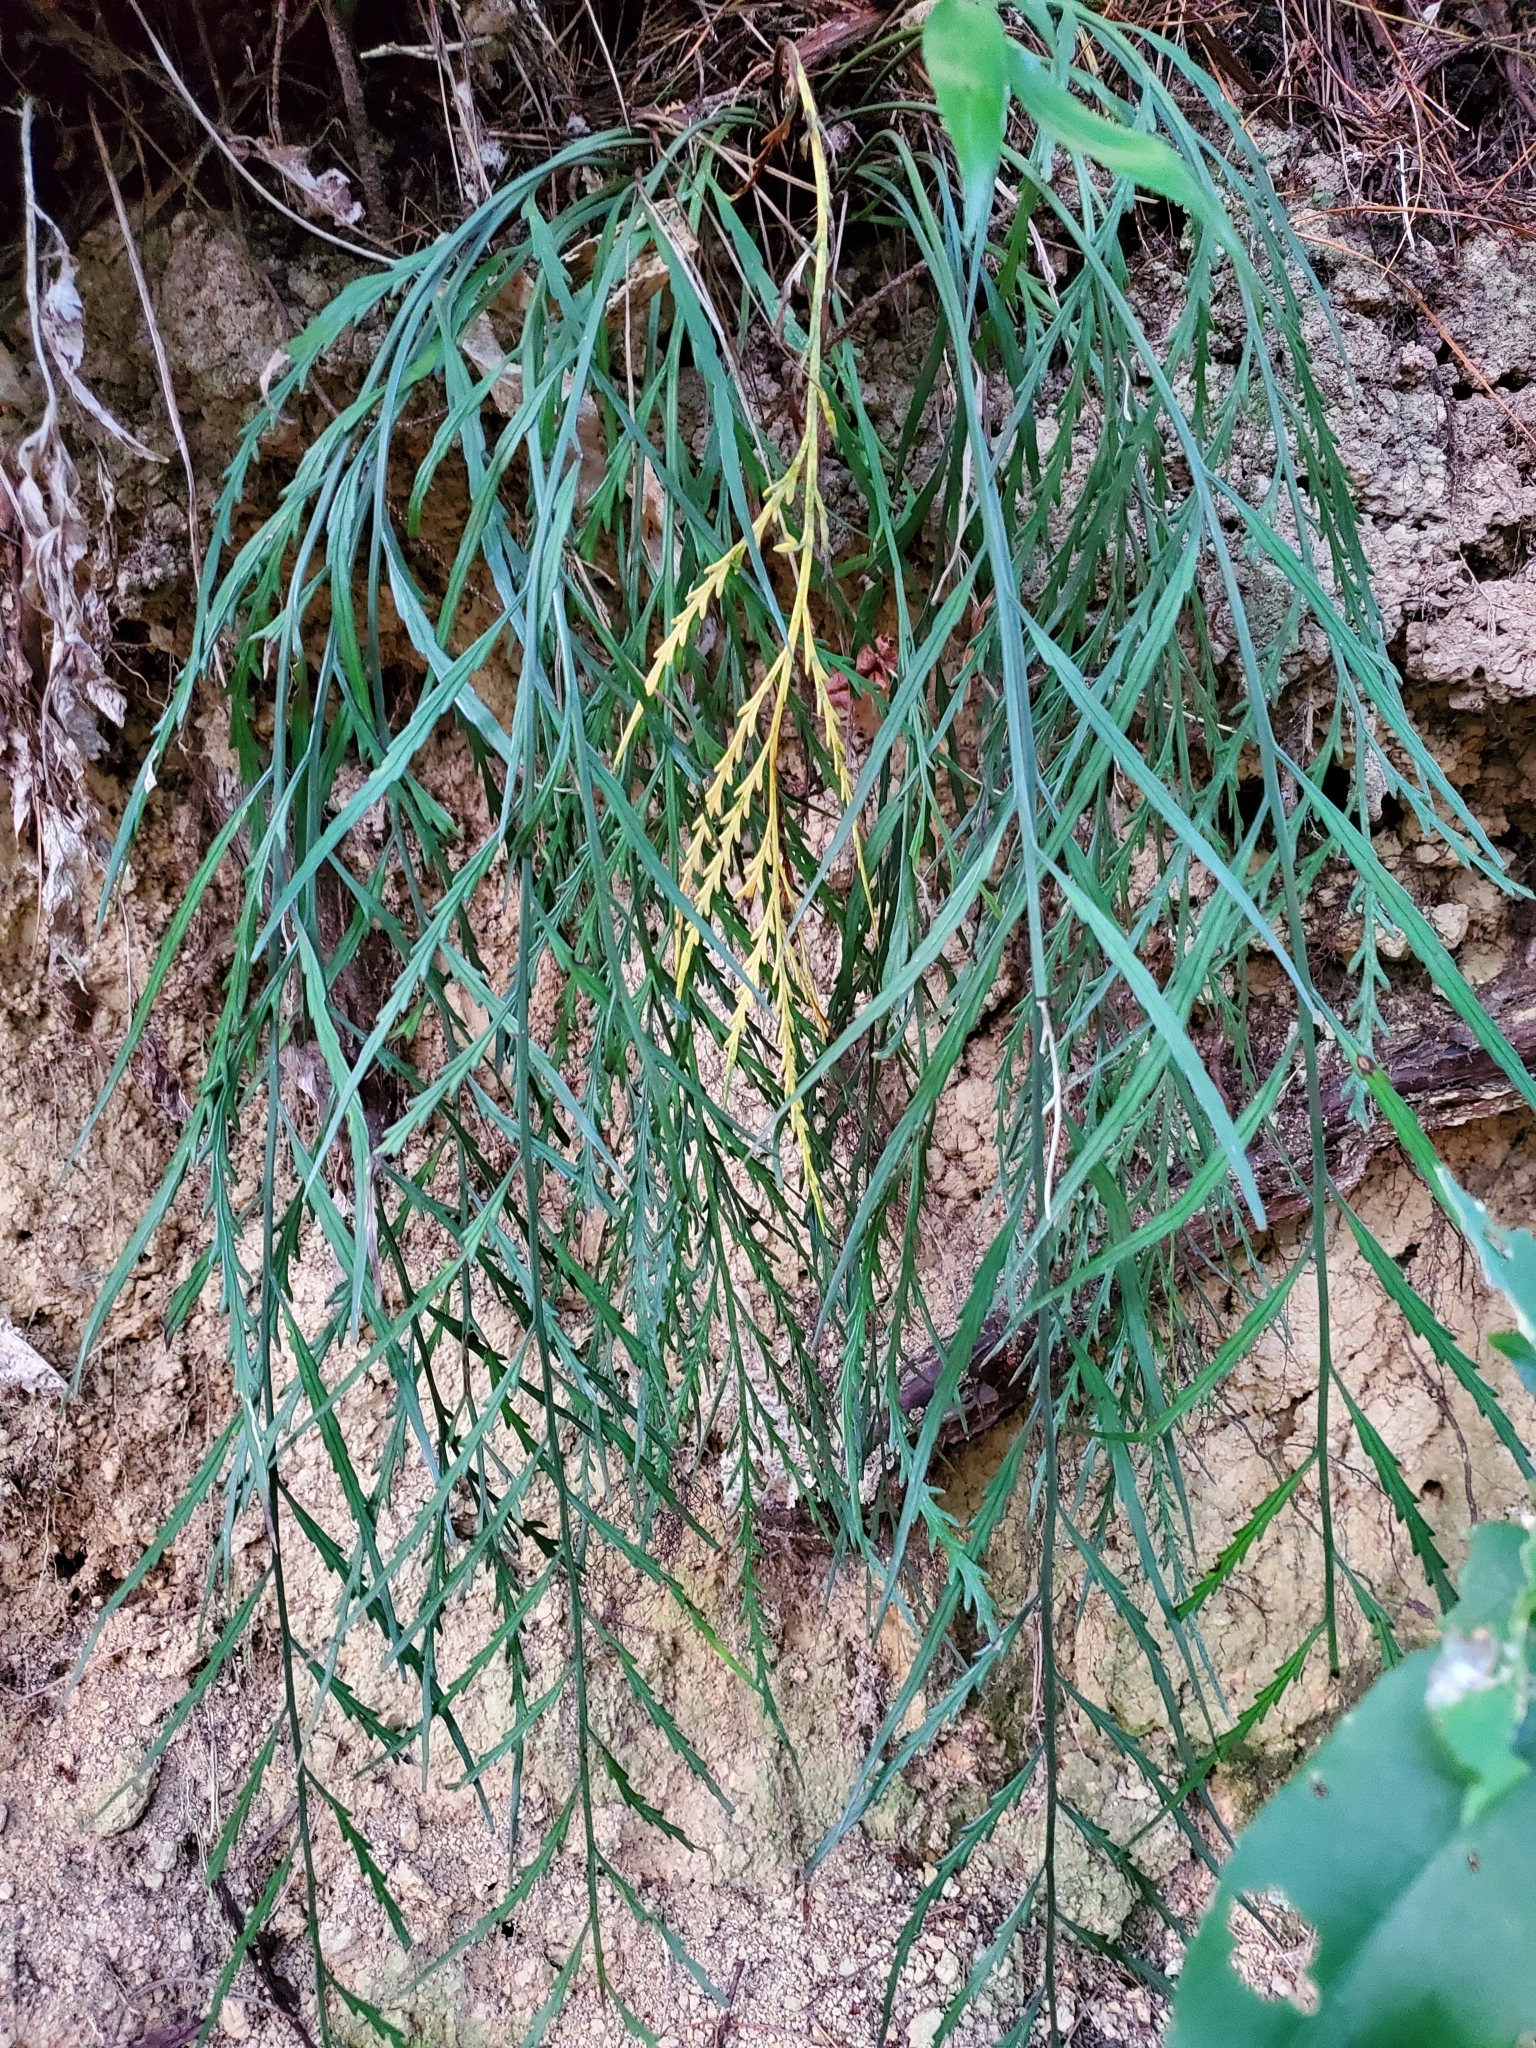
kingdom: Plantae
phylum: Tracheophyta
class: Polypodiopsida
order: Polypodiales
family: Aspleniaceae
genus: Asplenium
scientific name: Asplenium flaccidum
